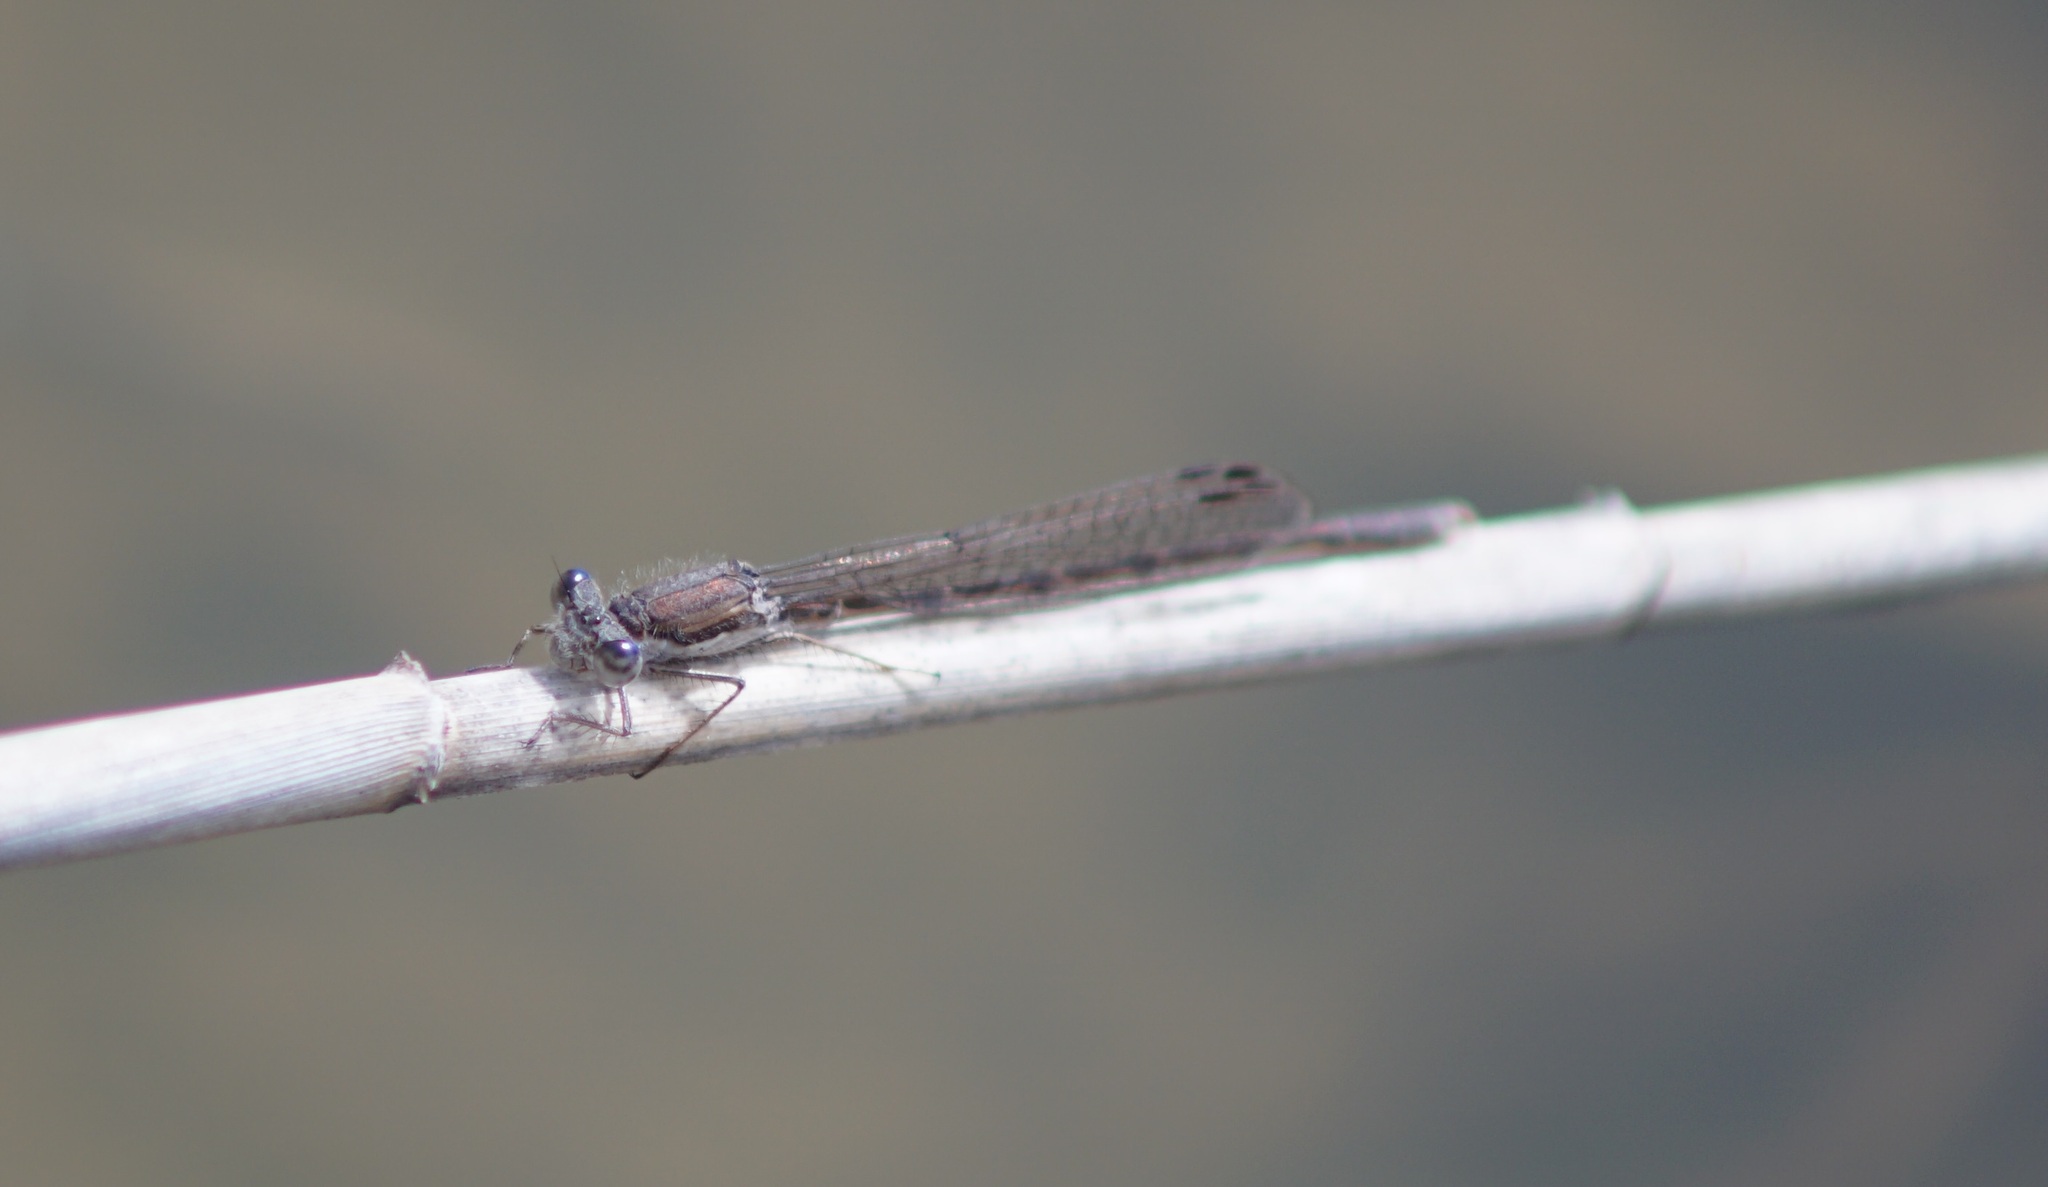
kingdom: Animalia
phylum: Arthropoda
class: Insecta
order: Odonata
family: Lestidae
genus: Sympecma
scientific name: Sympecma fusca
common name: Common winter damsel
